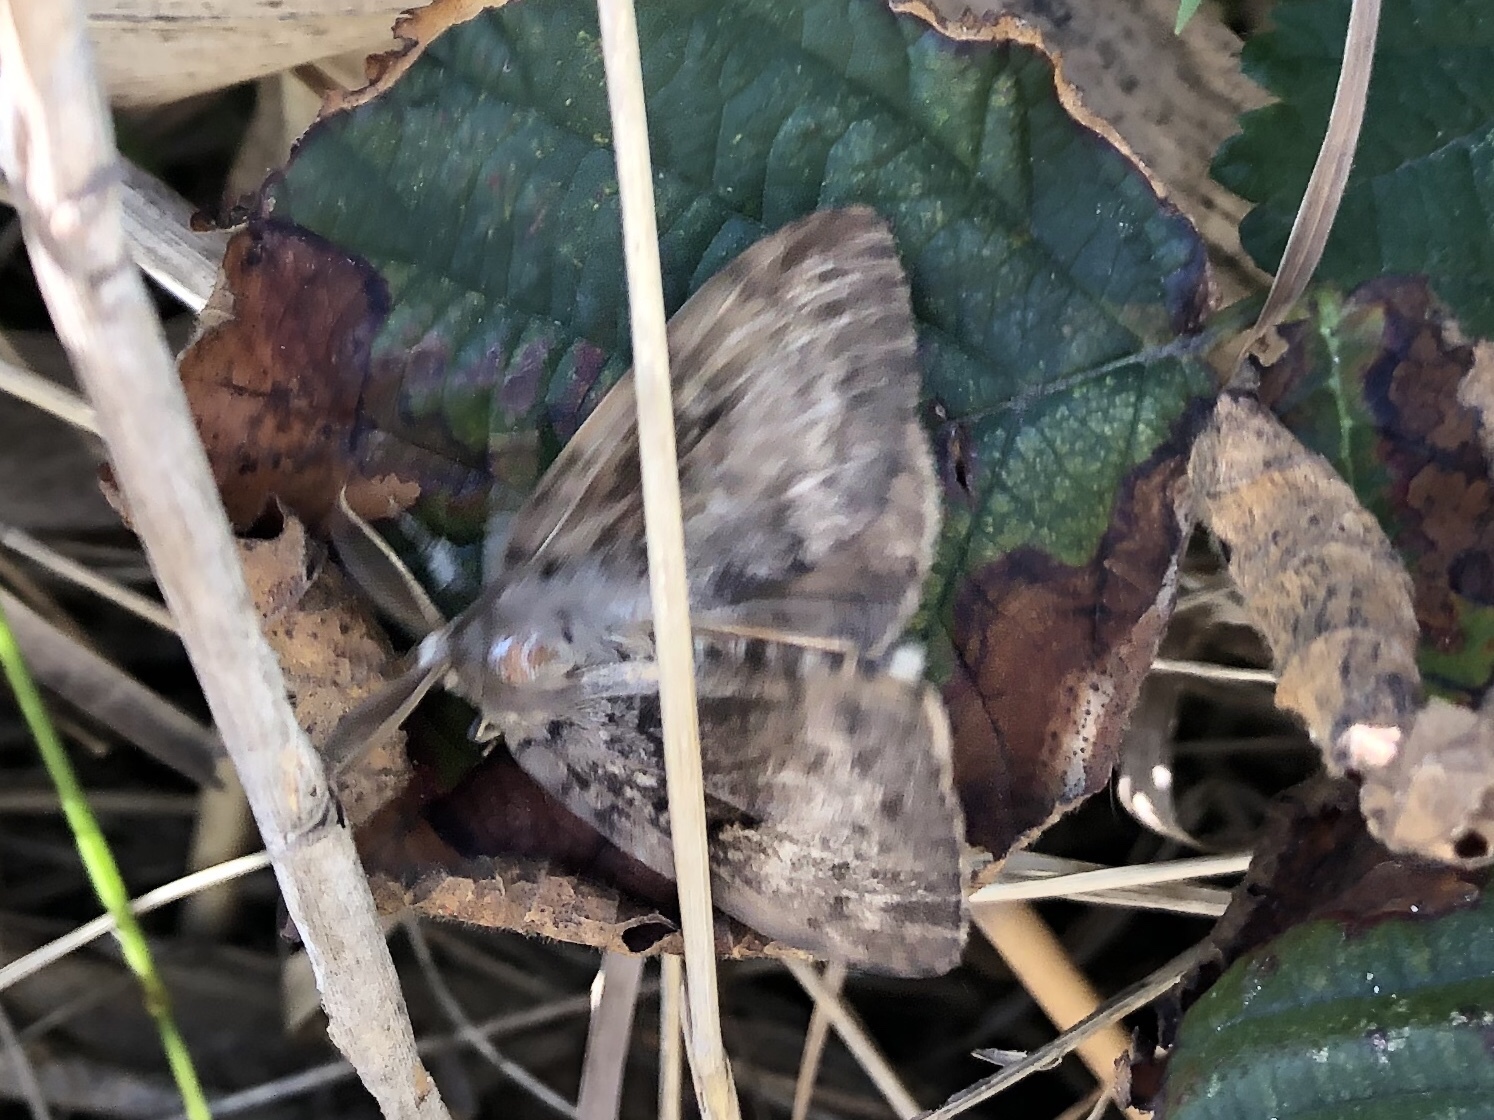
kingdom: Animalia
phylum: Arthropoda
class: Insecta
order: Lepidoptera
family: Erebidae
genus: Lymantria
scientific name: Lymantria dispar
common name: Gypsy moth
